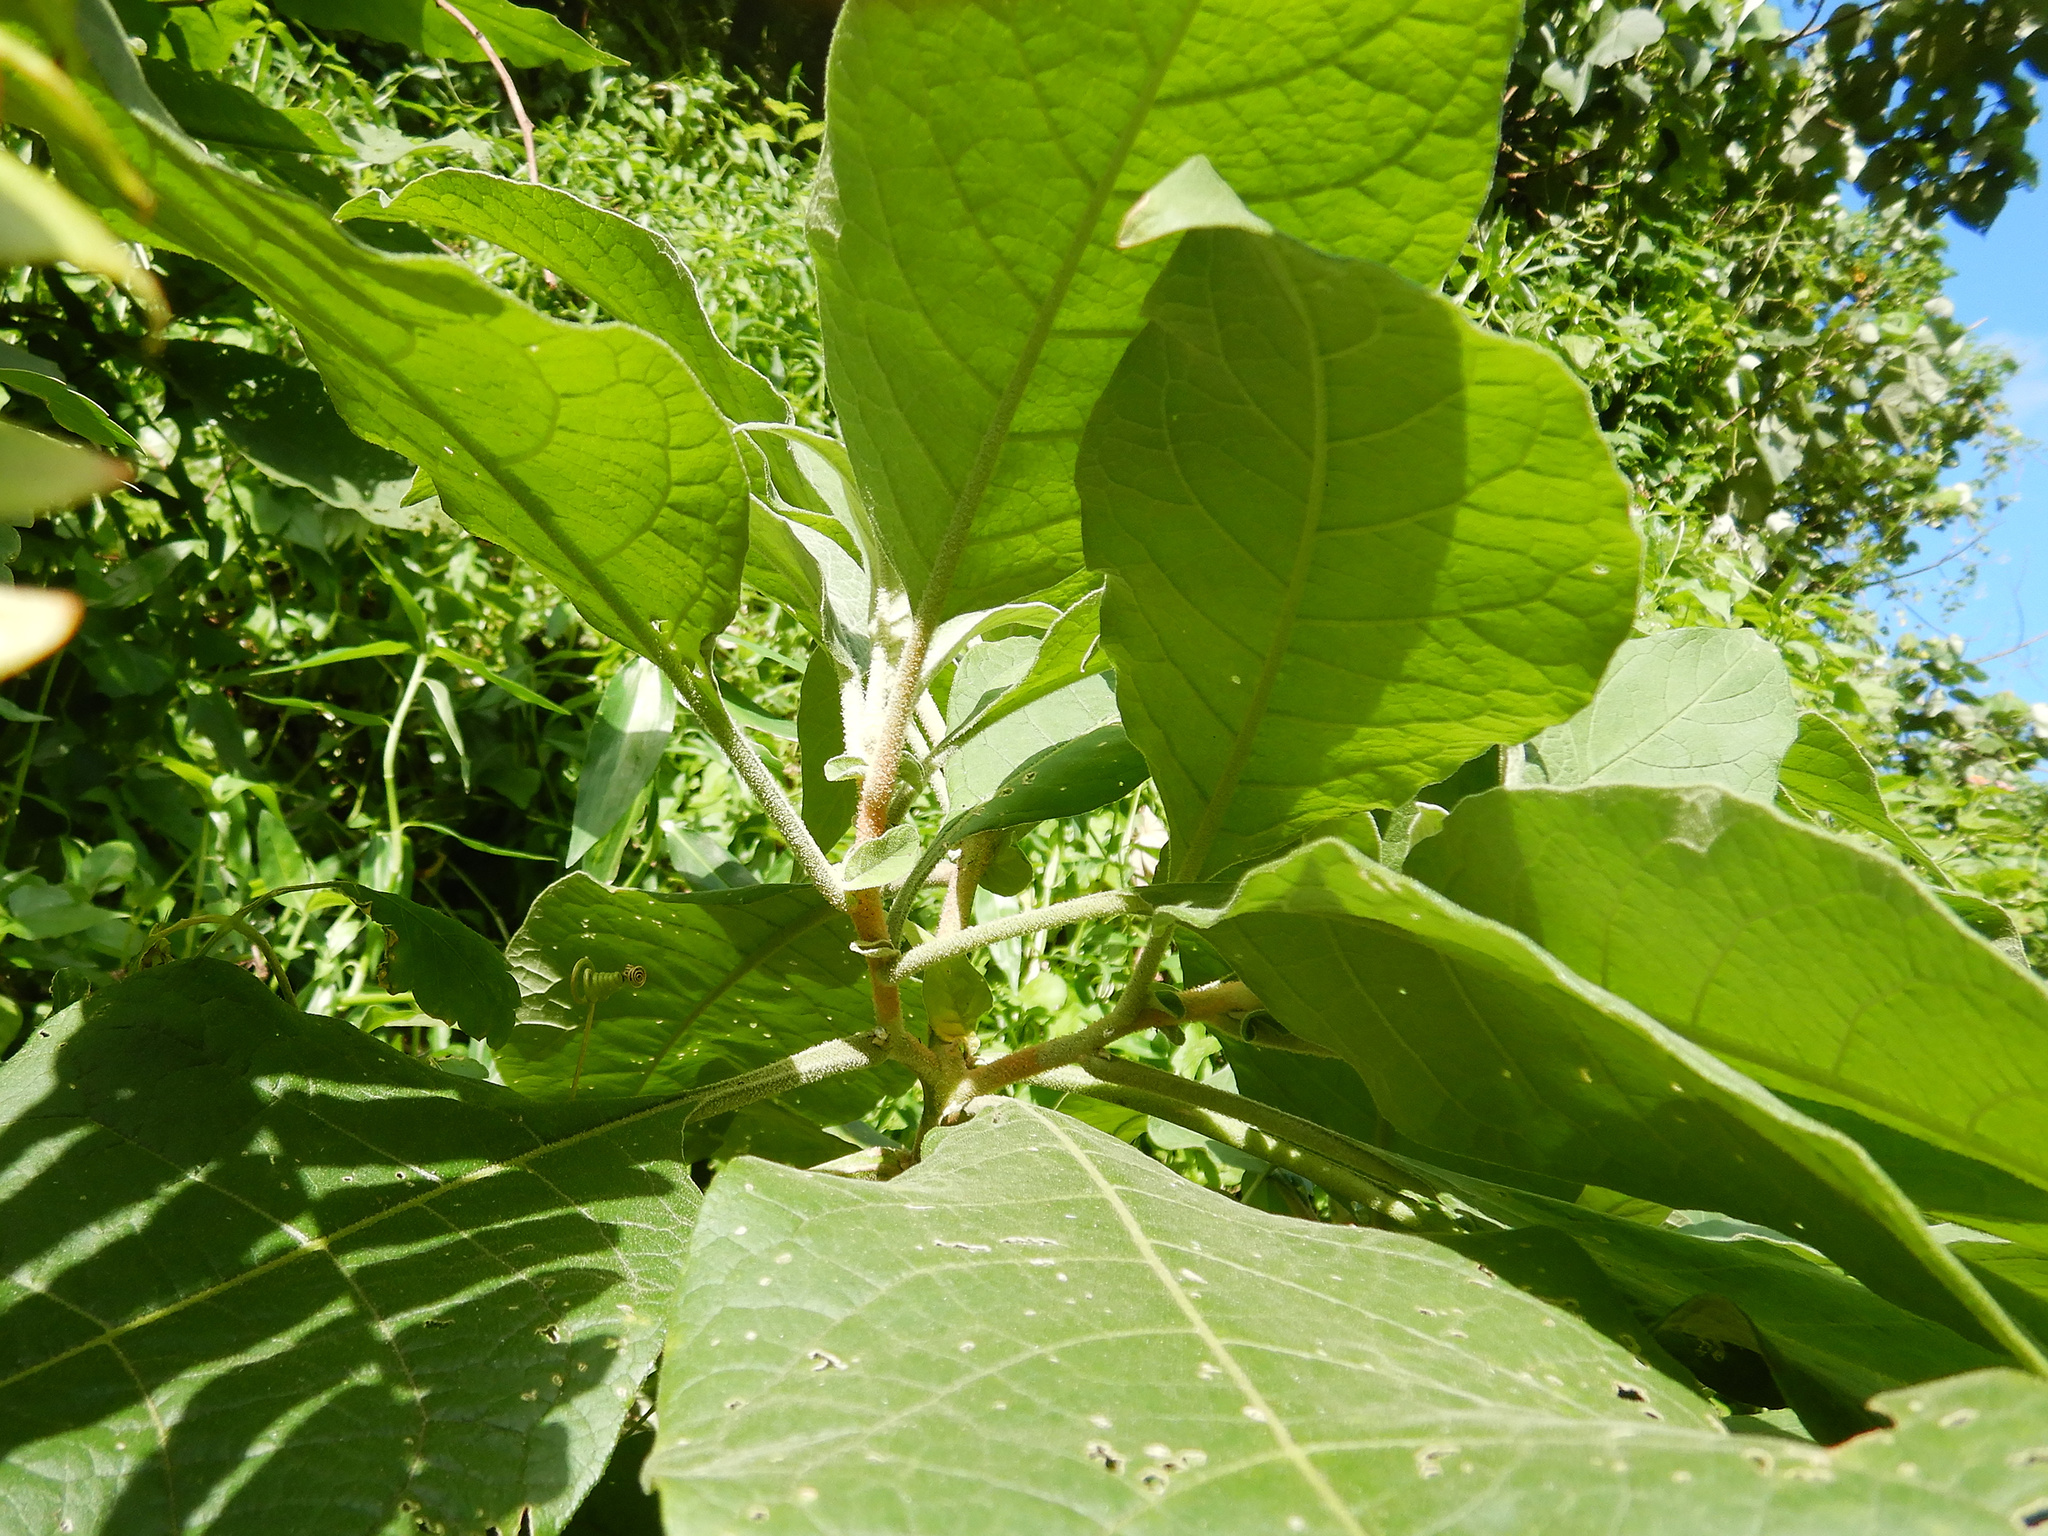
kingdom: Plantae
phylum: Tracheophyta
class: Magnoliopsida
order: Solanales
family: Solanaceae
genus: Solanum
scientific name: Solanum mauritianum
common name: Earleaf nightshade
